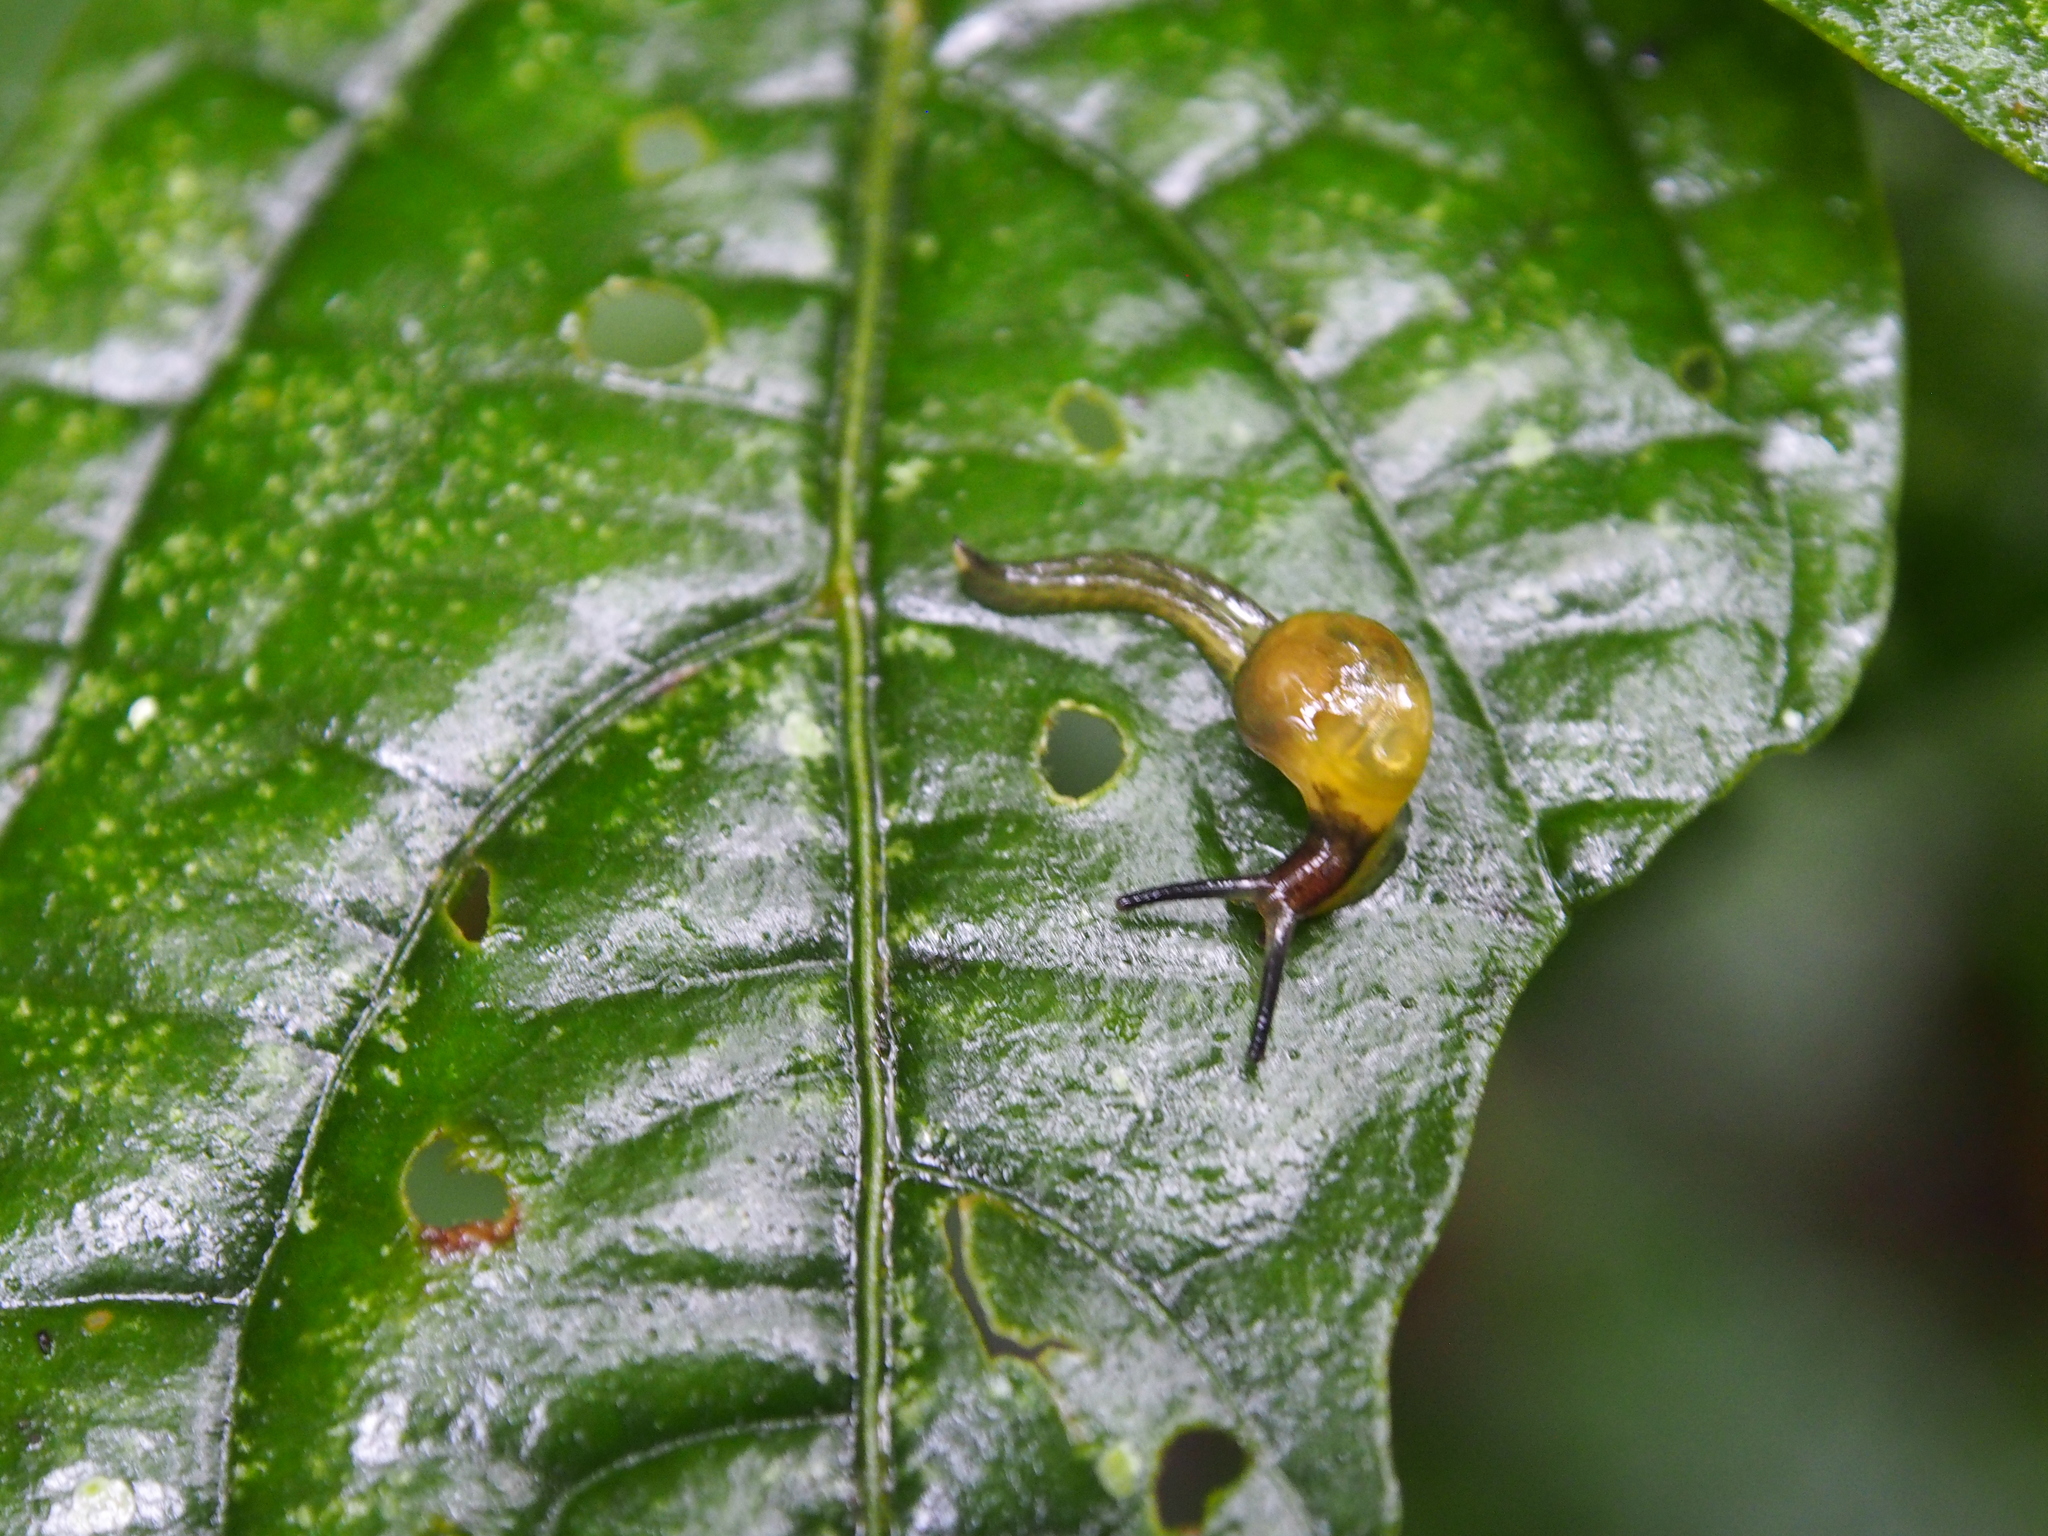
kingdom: Animalia
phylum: Mollusca
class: Gastropoda
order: Stylommatophora
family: Euconulidae
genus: Tikoconus
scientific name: Tikoconus costaricanus
